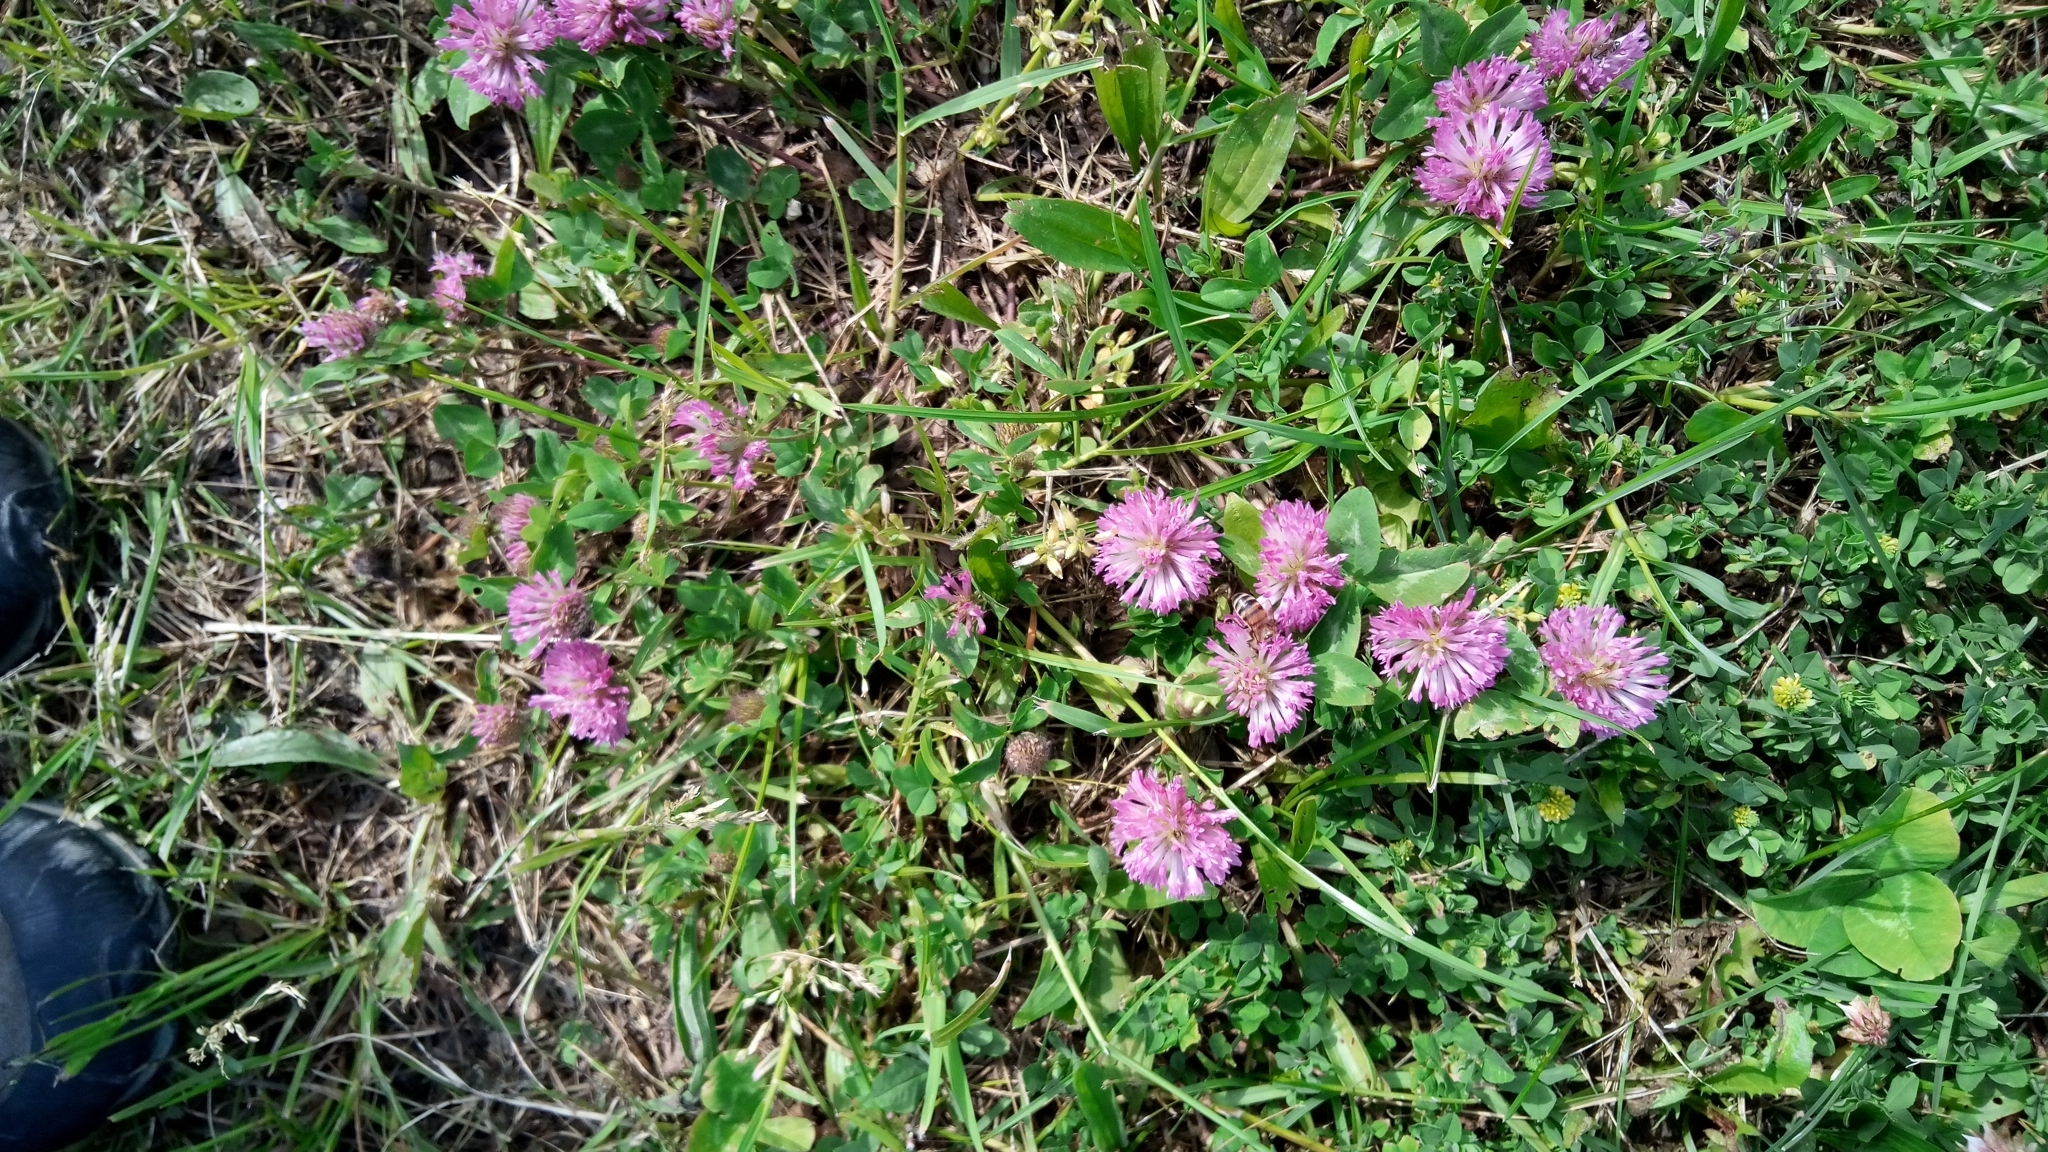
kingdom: Plantae
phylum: Tracheophyta
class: Magnoliopsida
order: Fabales
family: Fabaceae
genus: Trifolium
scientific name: Trifolium pratense
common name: Red clover
